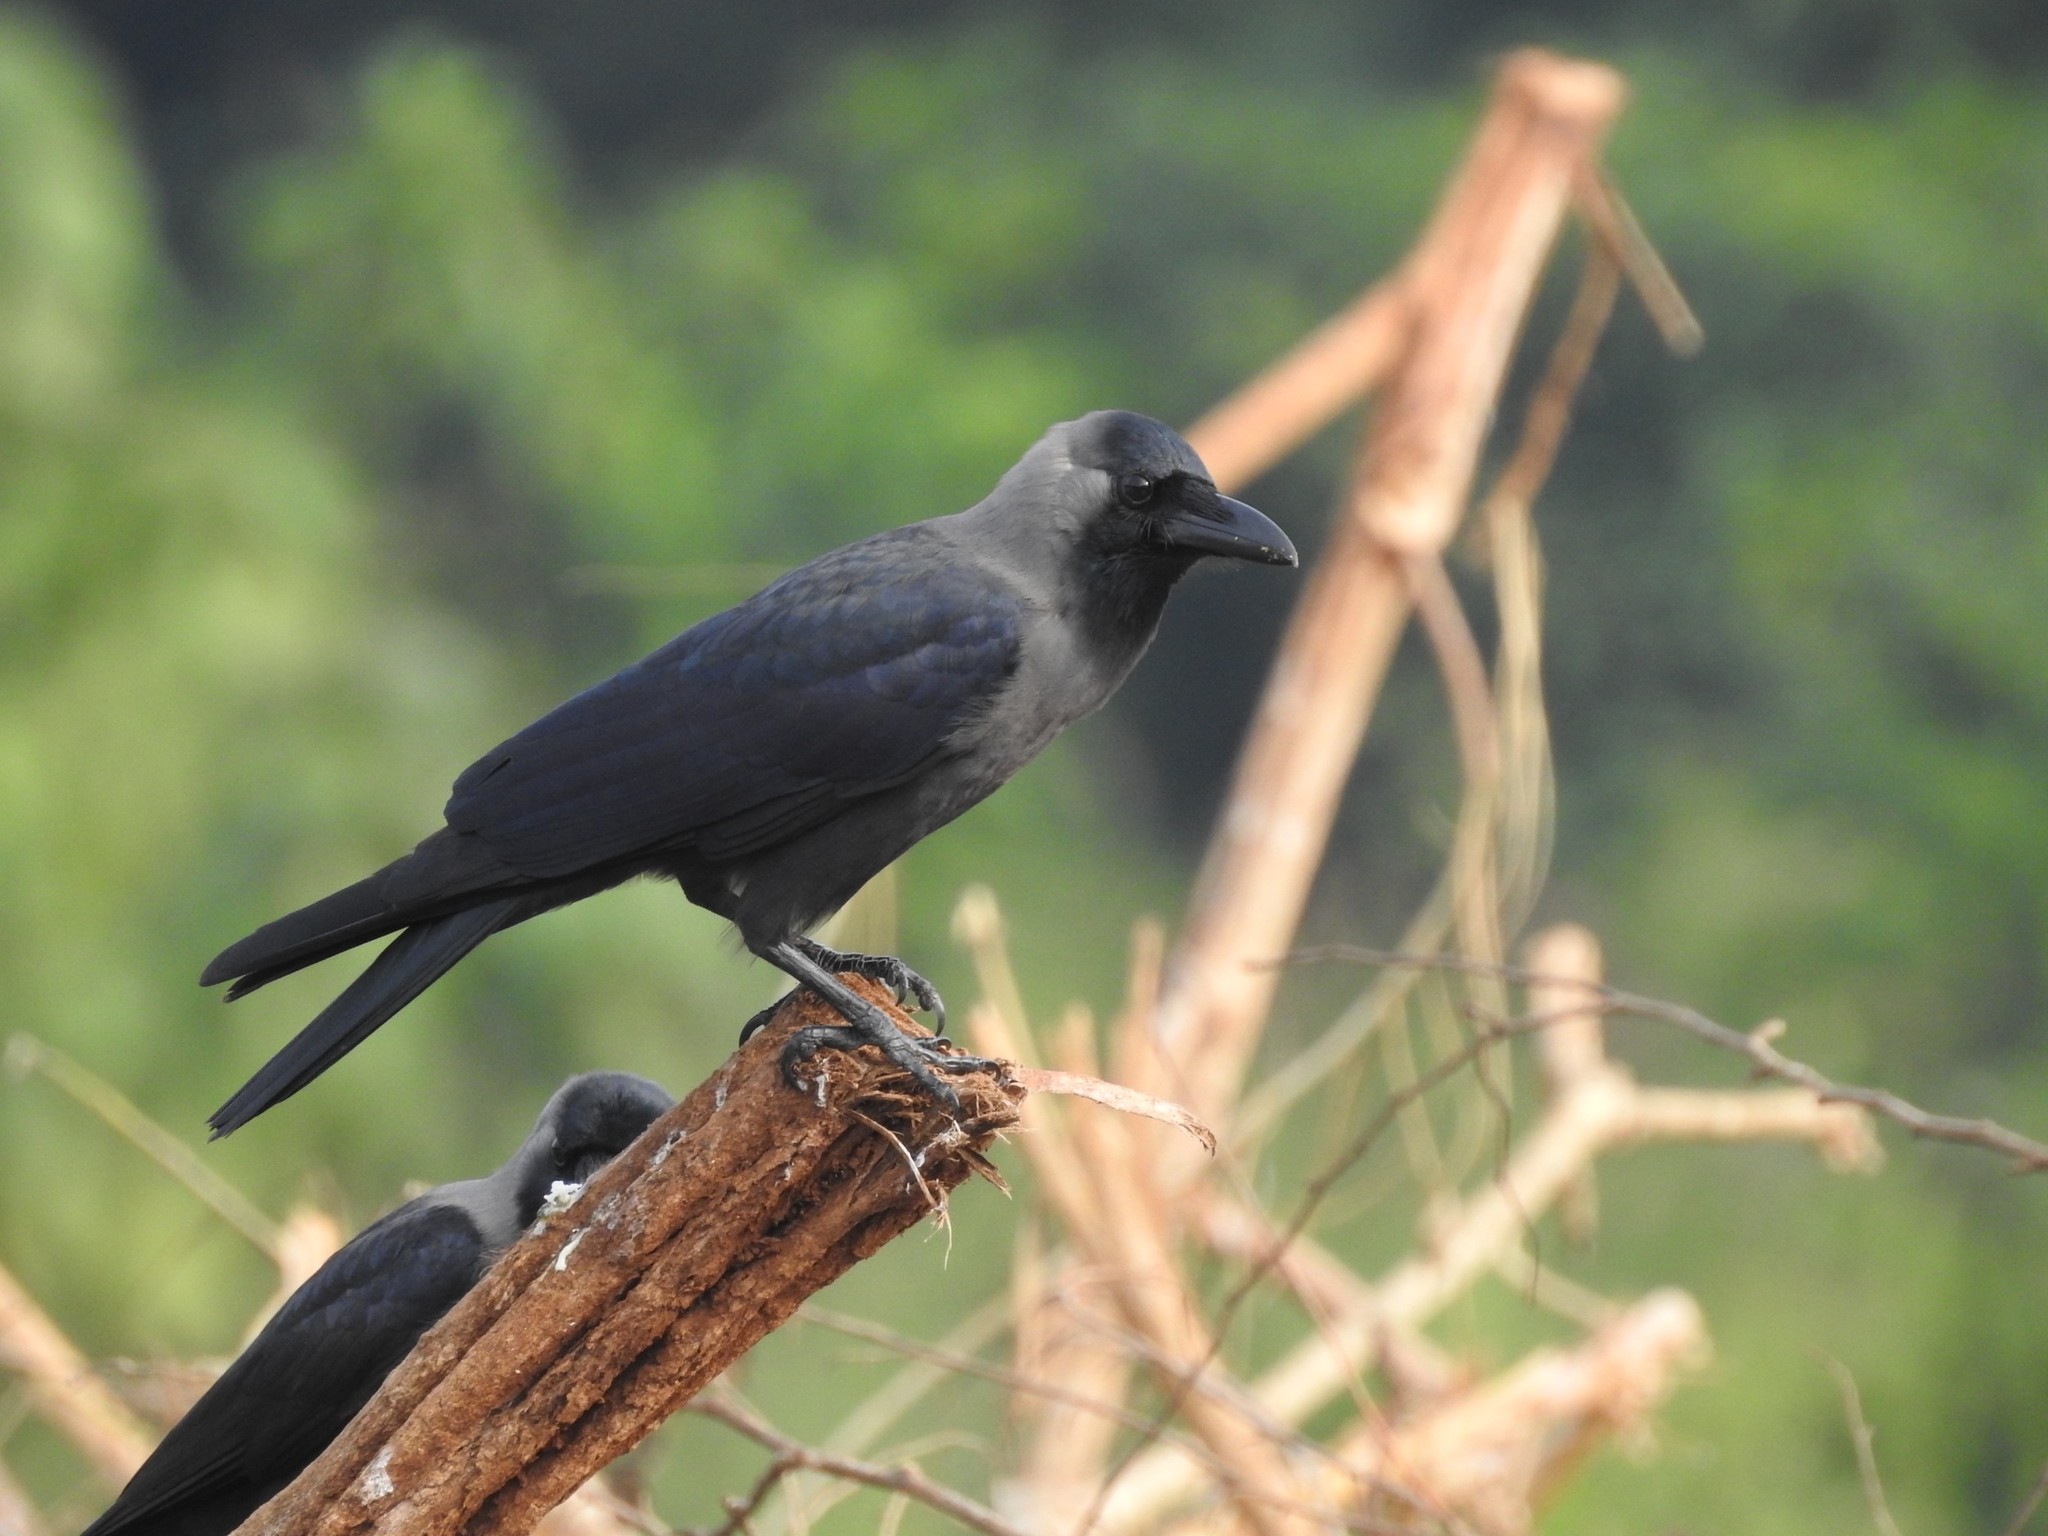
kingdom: Animalia
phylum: Chordata
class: Aves
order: Passeriformes
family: Corvidae
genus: Corvus
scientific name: Corvus splendens
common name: House crow
